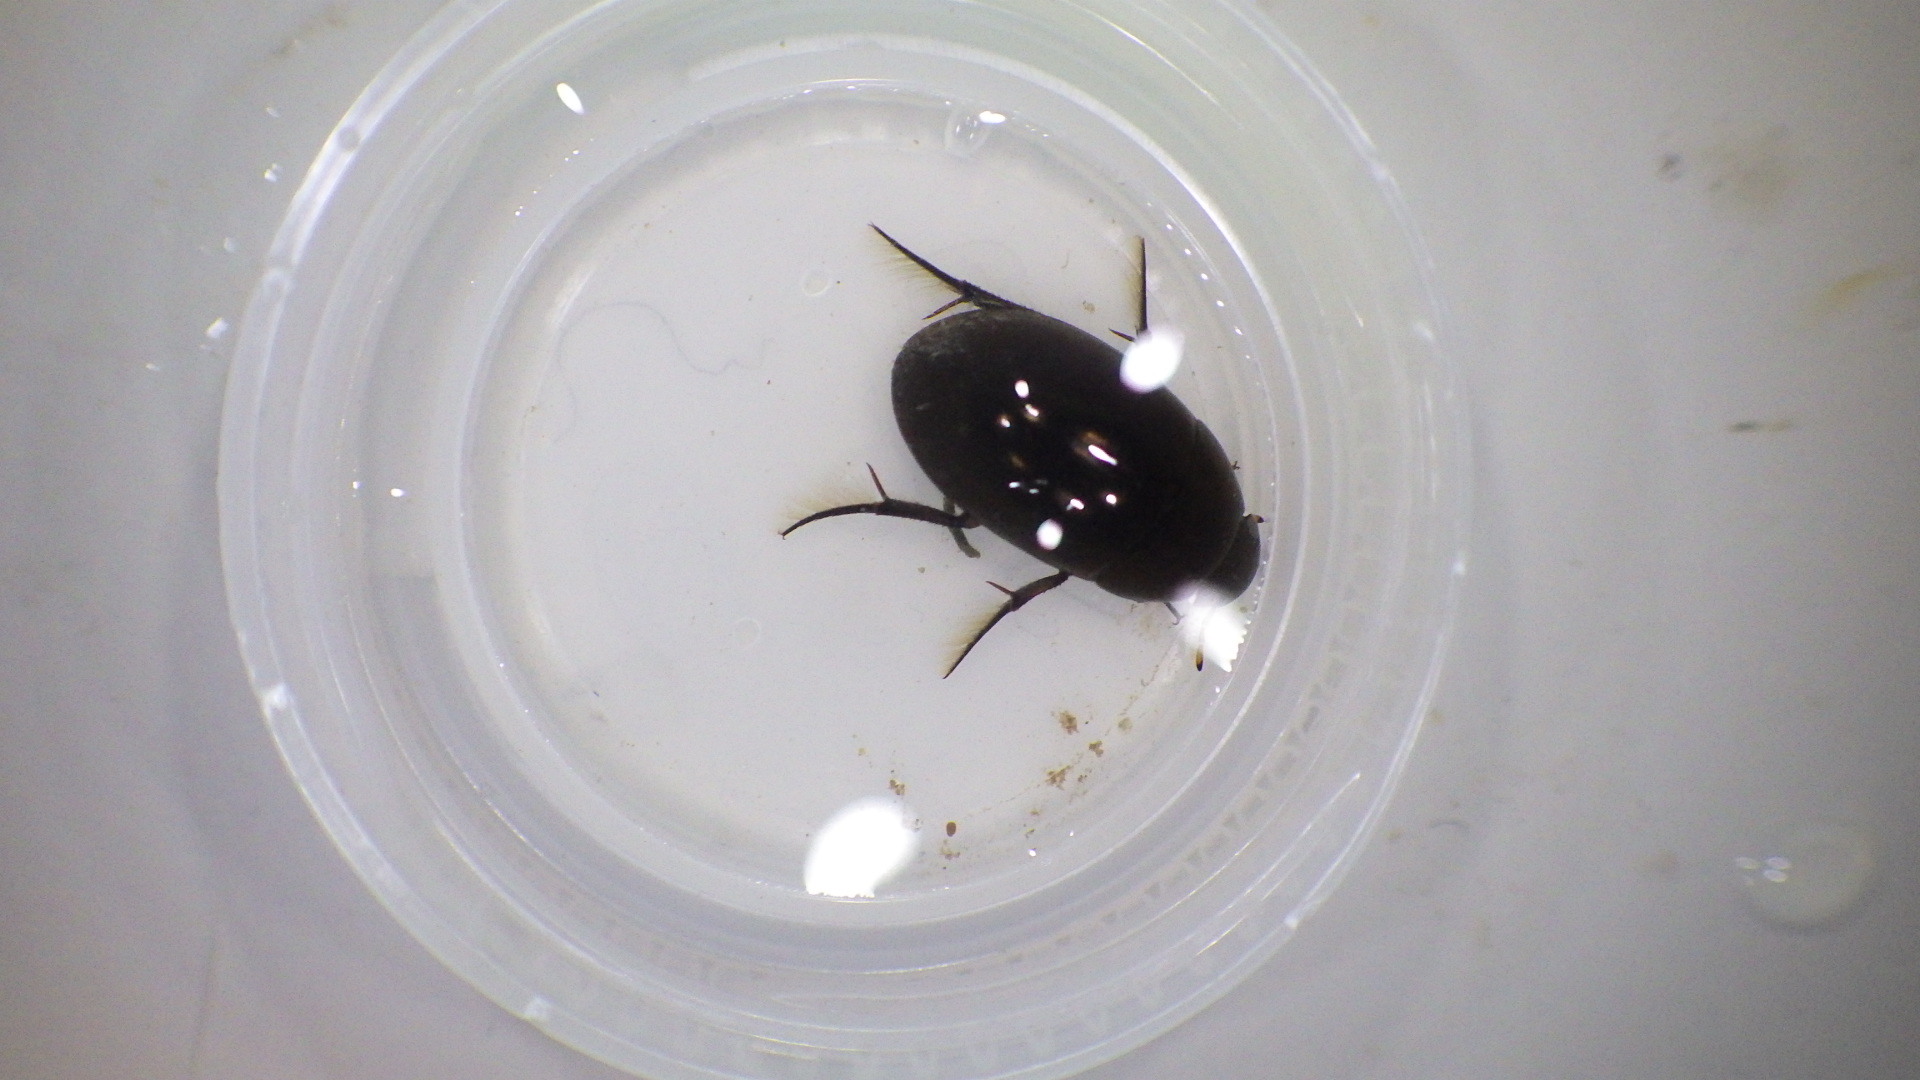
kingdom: Animalia
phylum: Arthropoda
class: Insecta
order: Coleoptera
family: Hydrophilidae
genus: Tropisternus
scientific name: Tropisternus
